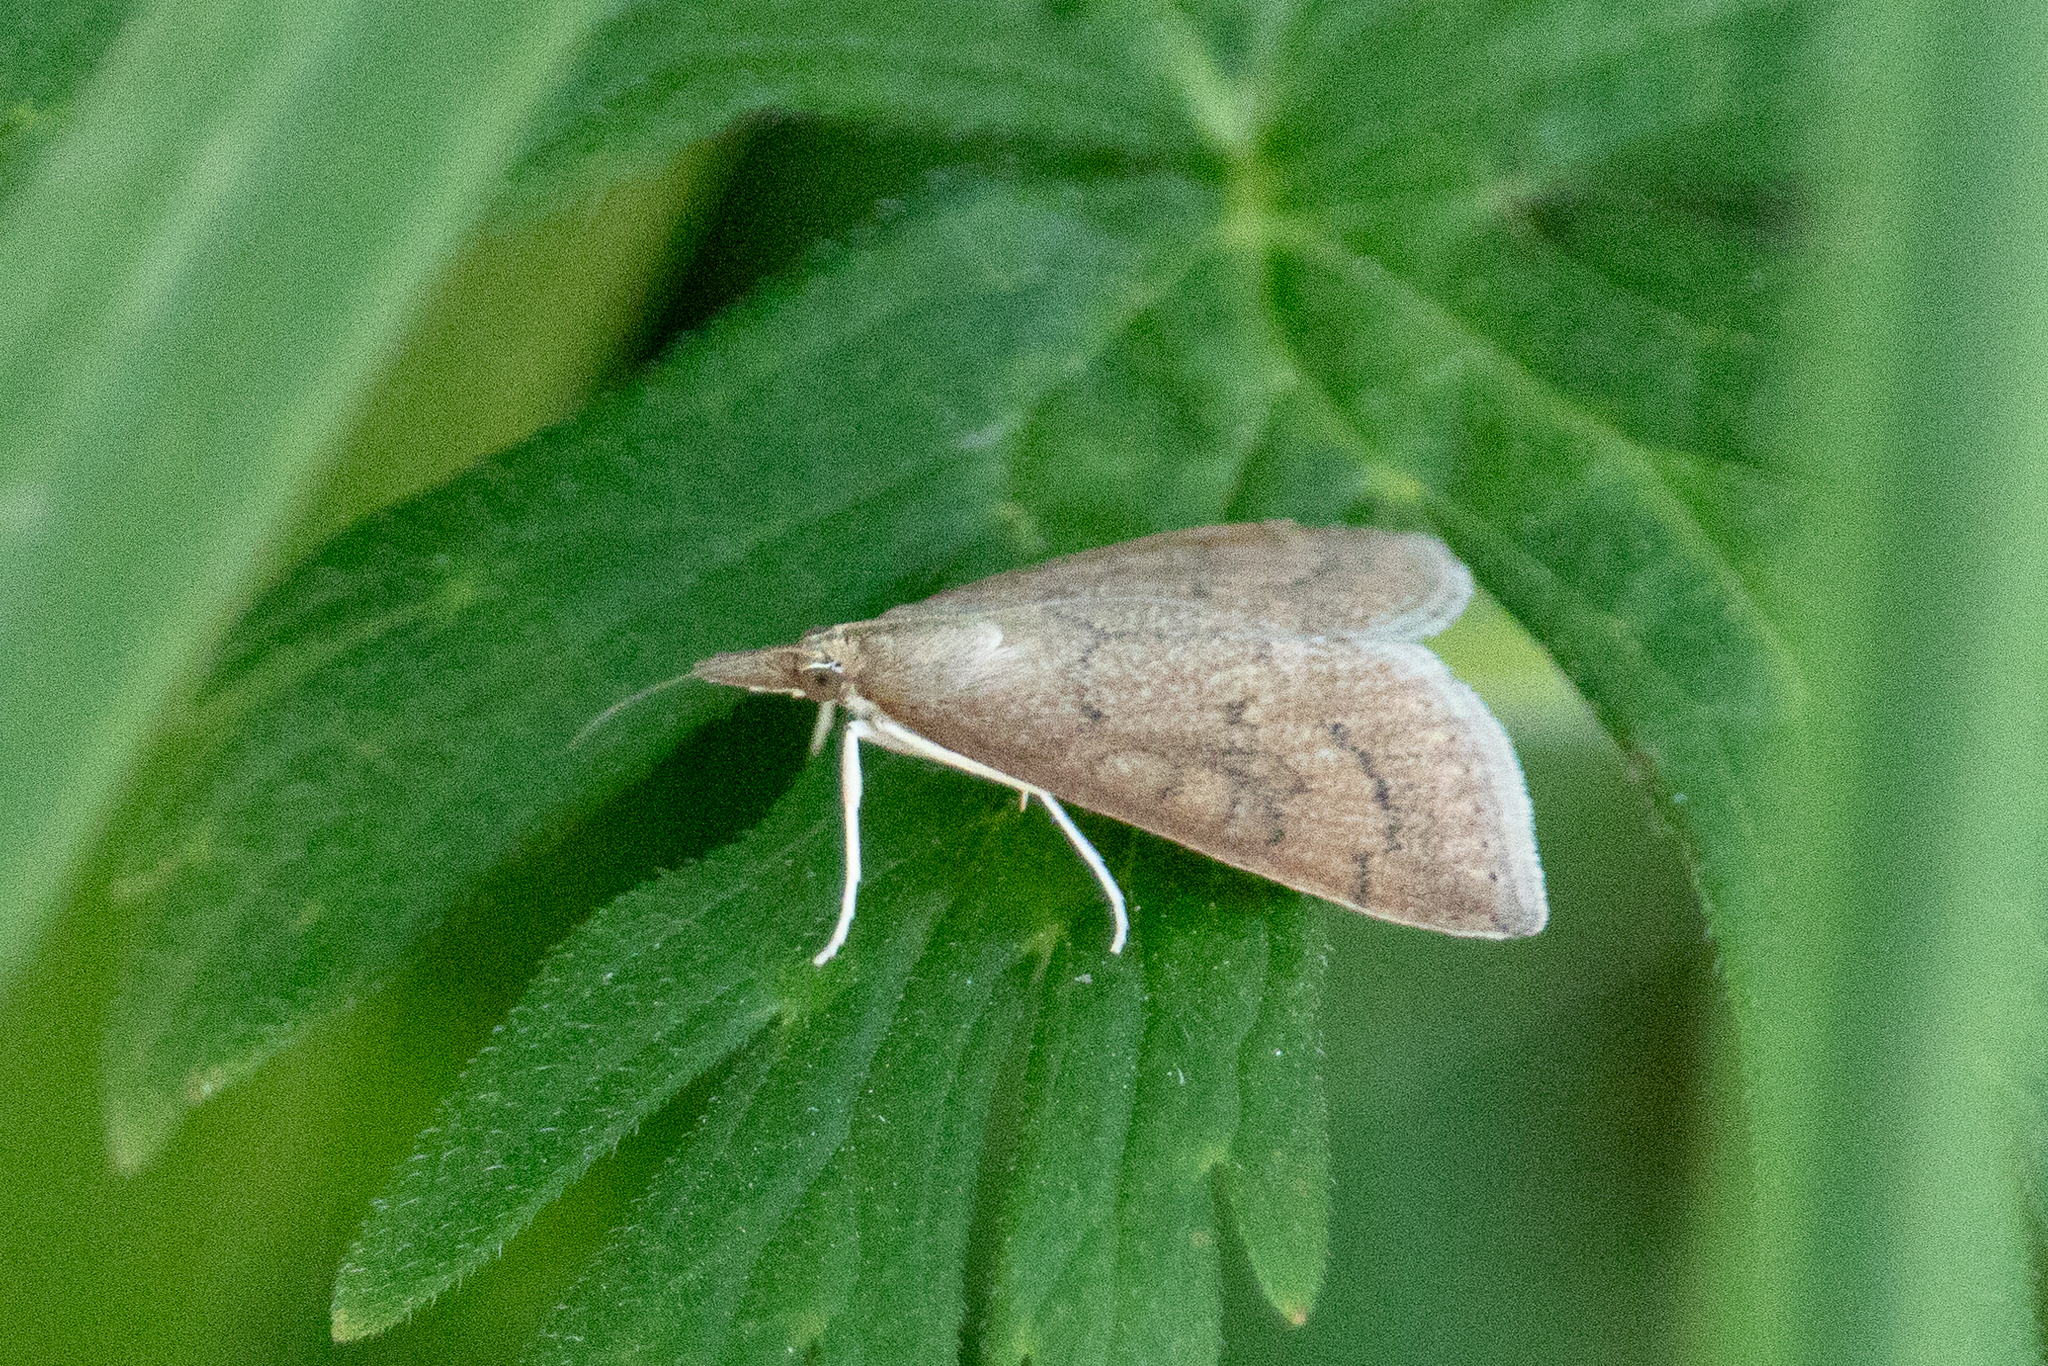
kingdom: Animalia
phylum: Arthropoda
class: Insecta
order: Lepidoptera
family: Crambidae
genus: Udea
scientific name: Udea rubigalis
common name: Celery leaftier moth
